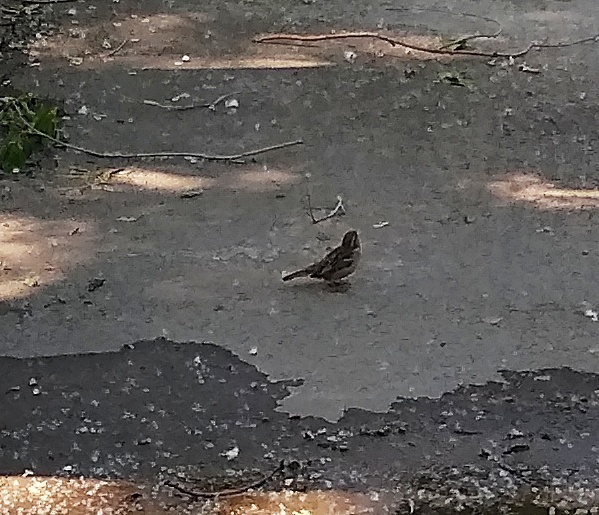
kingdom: Animalia
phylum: Chordata
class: Aves
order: Passeriformes
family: Passeridae
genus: Passer
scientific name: Passer domesticus
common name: House sparrow
